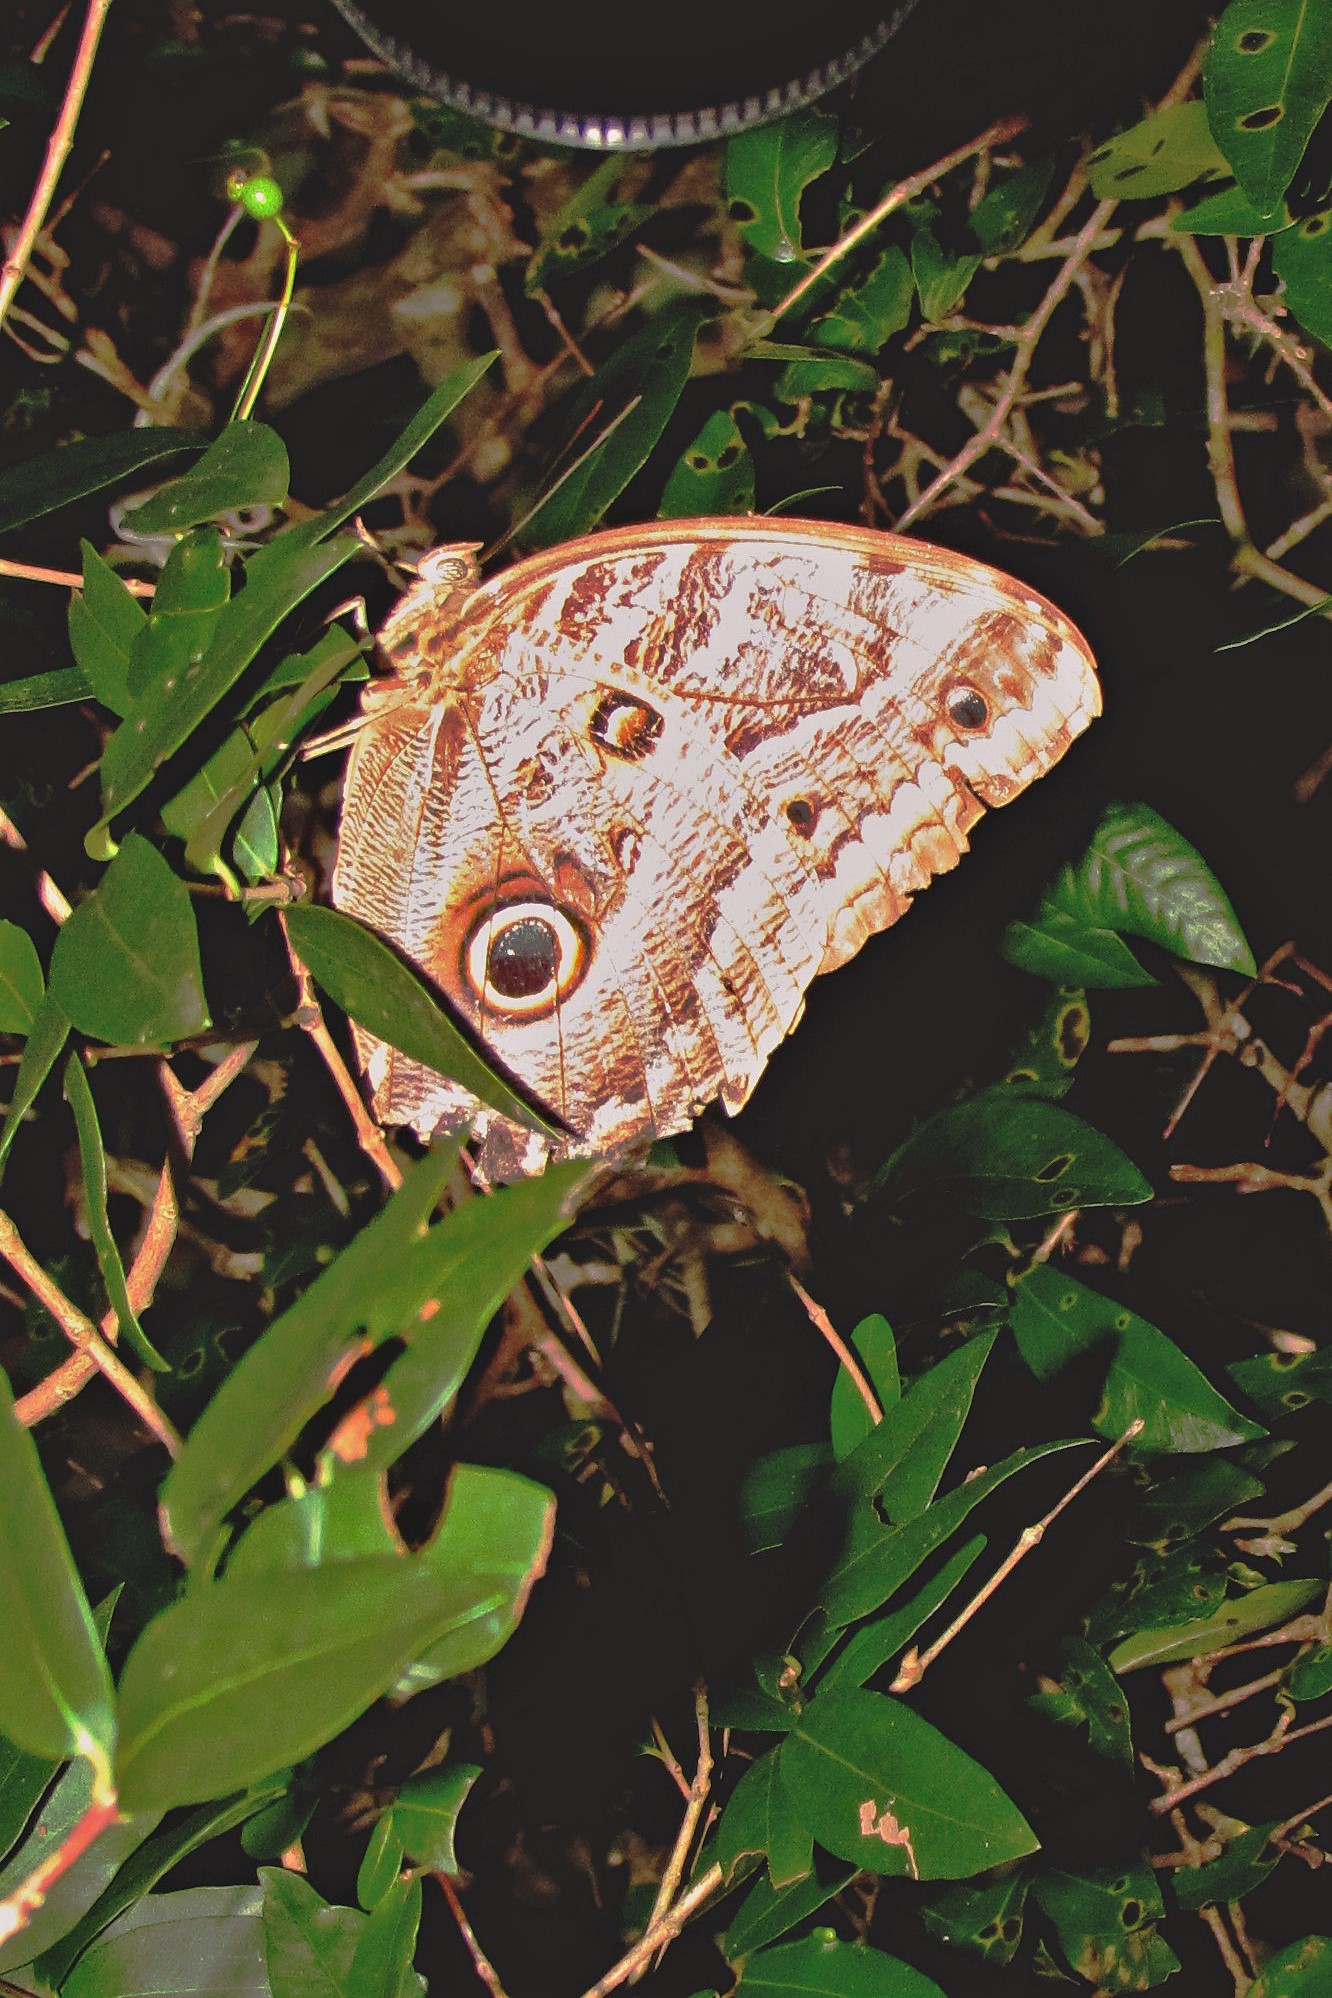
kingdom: Animalia
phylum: Arthropoda
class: Insecta
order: Lepidoptera
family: Nymphalidae
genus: Caligo
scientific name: Caligo illioneus
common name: Dusky owl-butterfly
